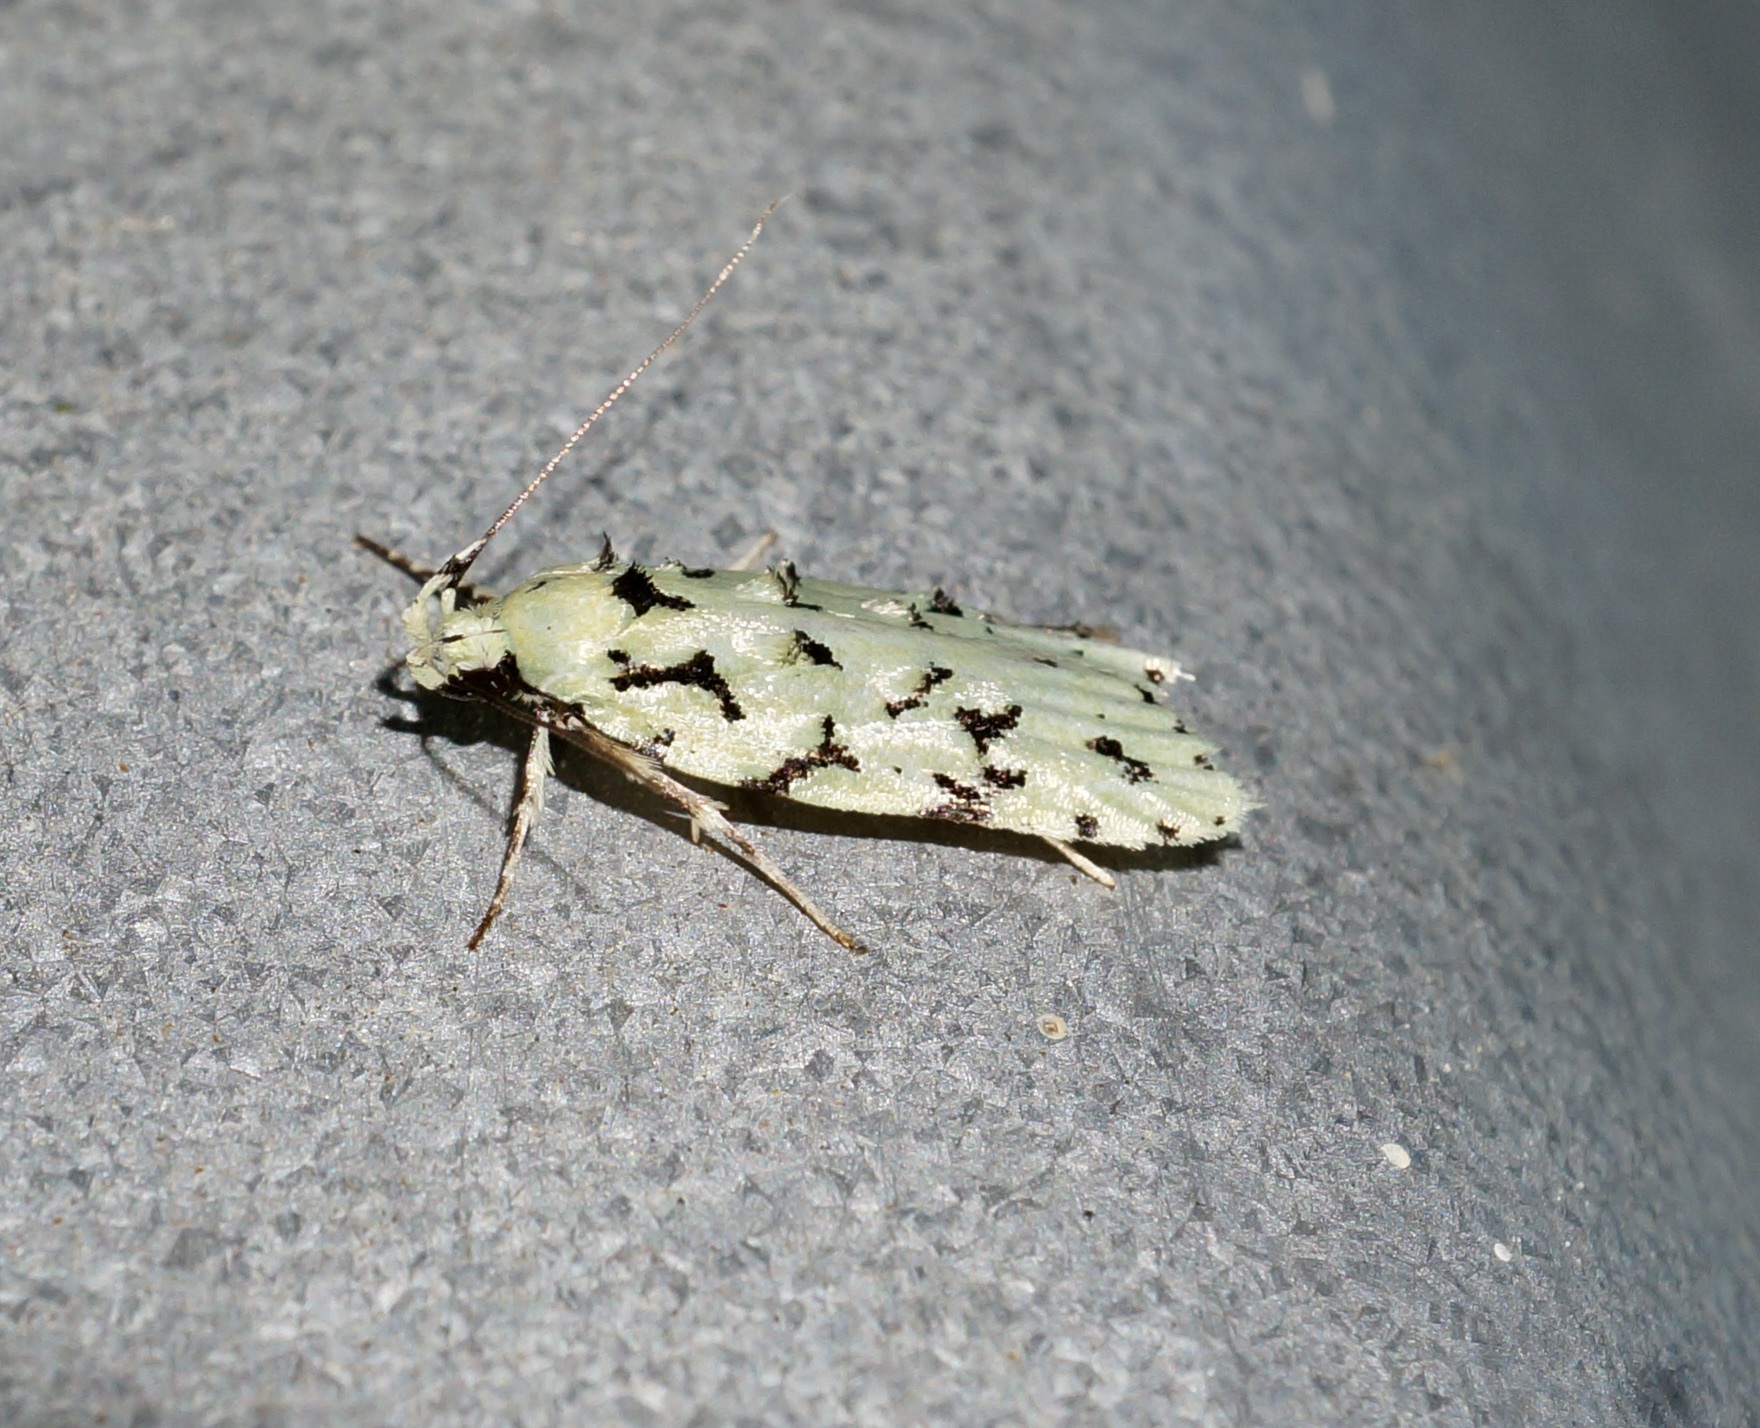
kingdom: Animalia
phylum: Arthropoda
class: Insecta
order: Lepidoptera
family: Oecophoridae
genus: Izatha
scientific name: Izatha peroneanella
